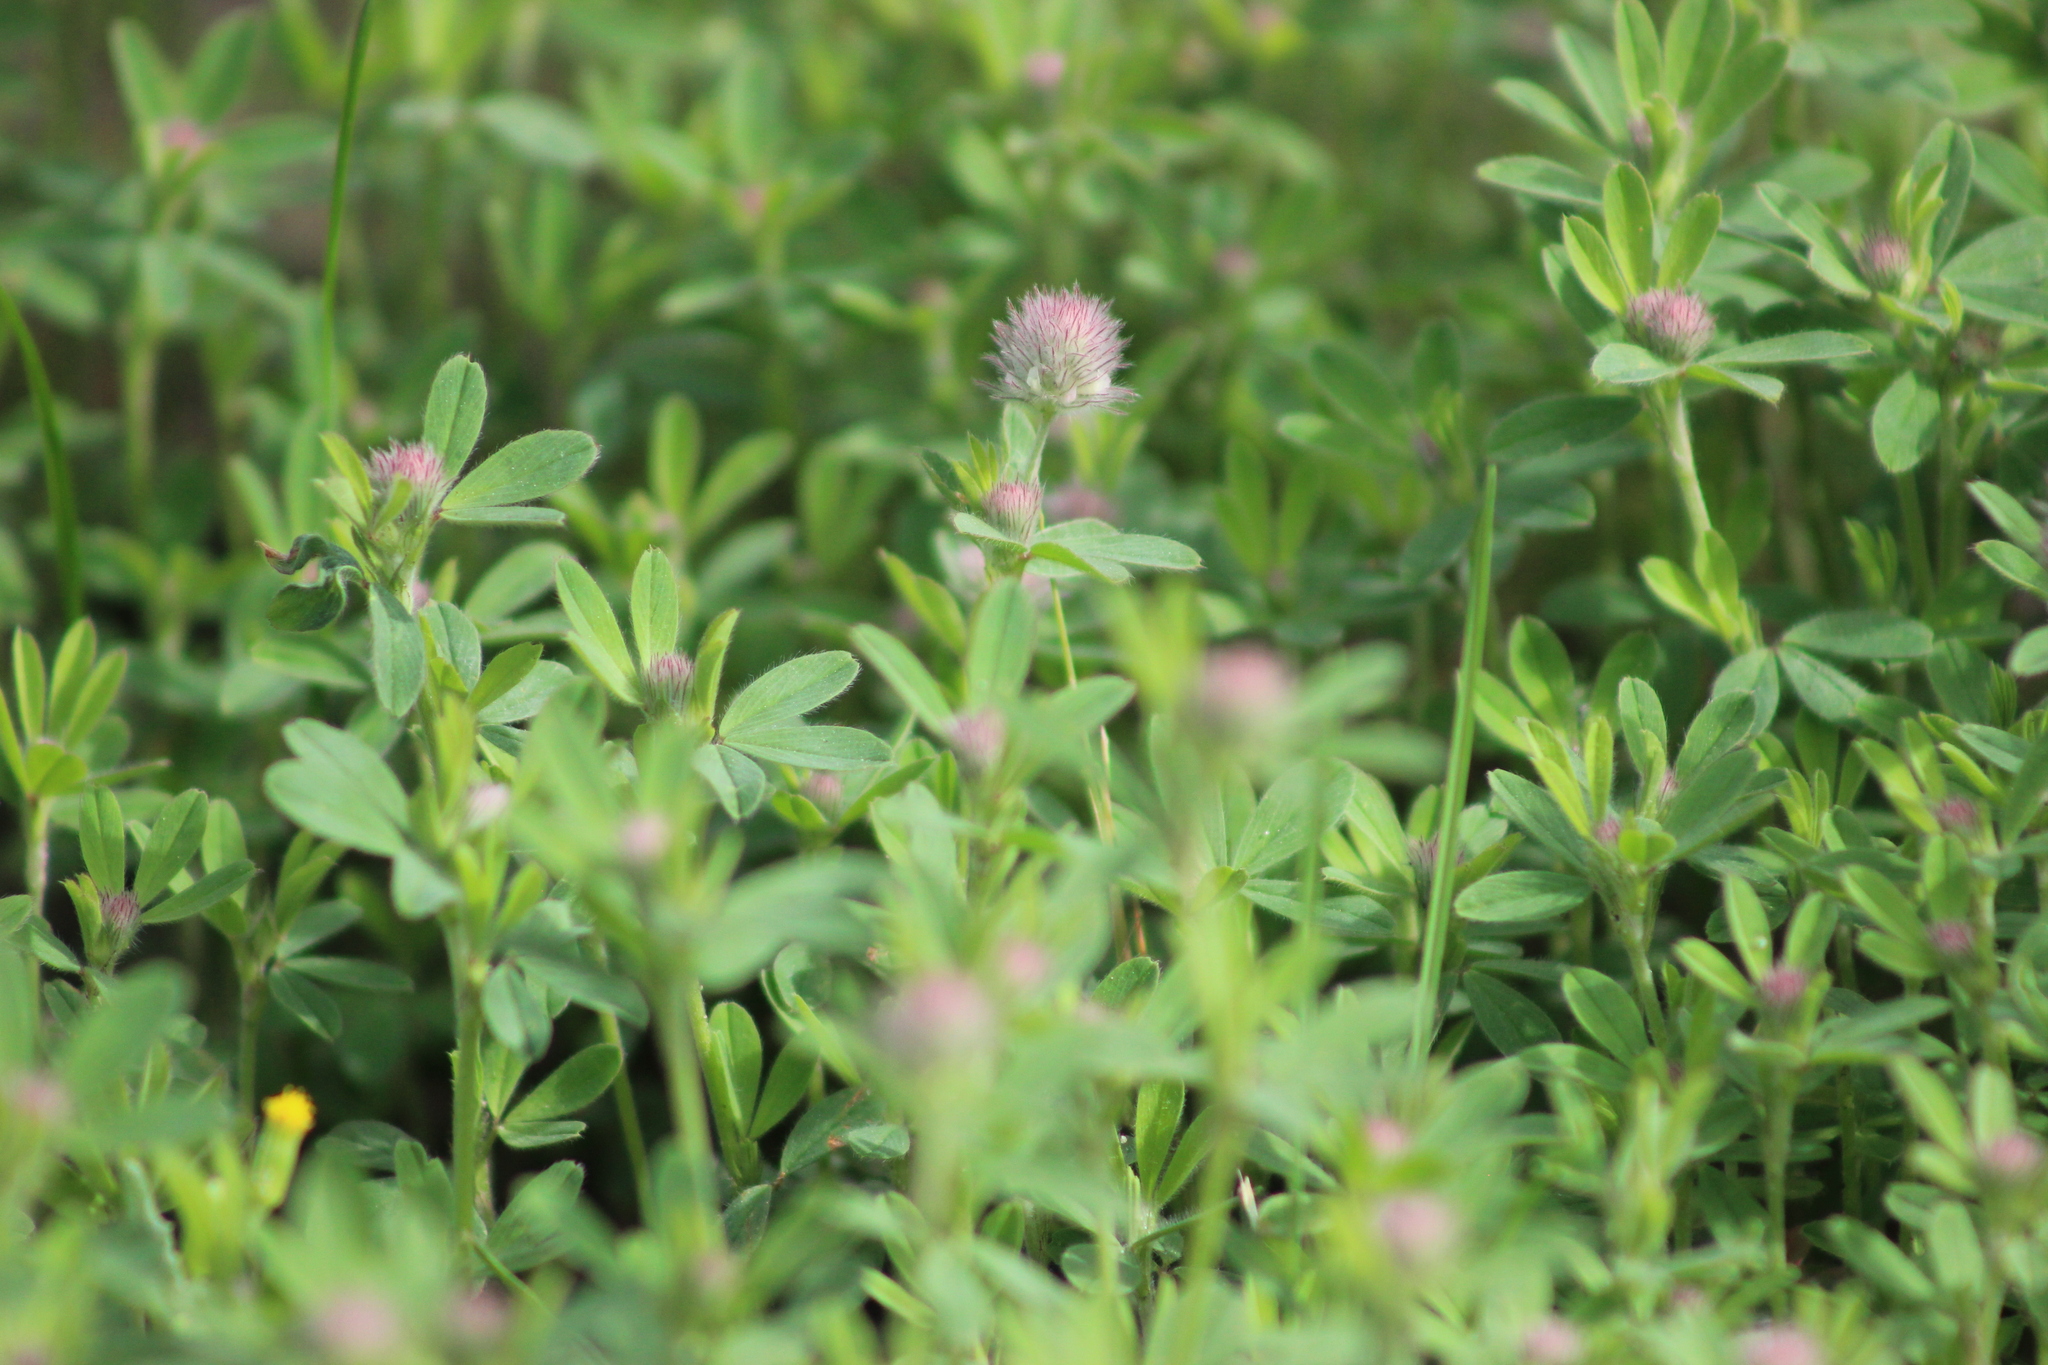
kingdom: Plantae
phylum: Tracheophyta
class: Magnoliopsida
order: Fabales
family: Fabaceae
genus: Trifolium
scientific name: Trifolium arvense
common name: Hare's-foot clover
